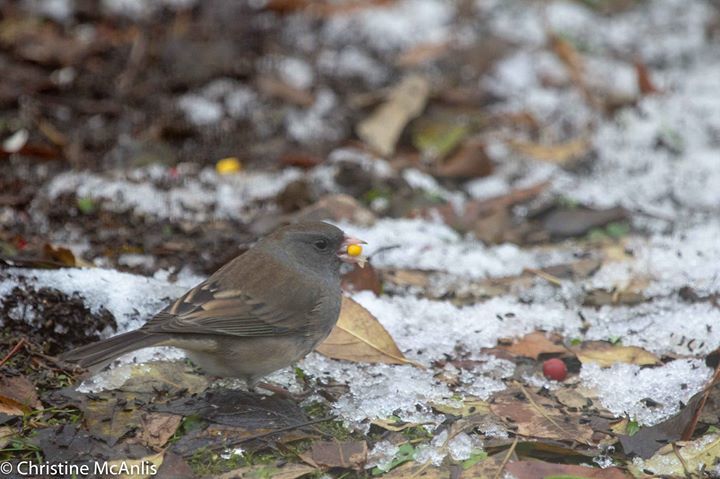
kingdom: Animalia
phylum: Chordata
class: Aves
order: Passeriformes
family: Passerellidae
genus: Junco
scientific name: Junco hyemalis
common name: Dark-eyed junco
